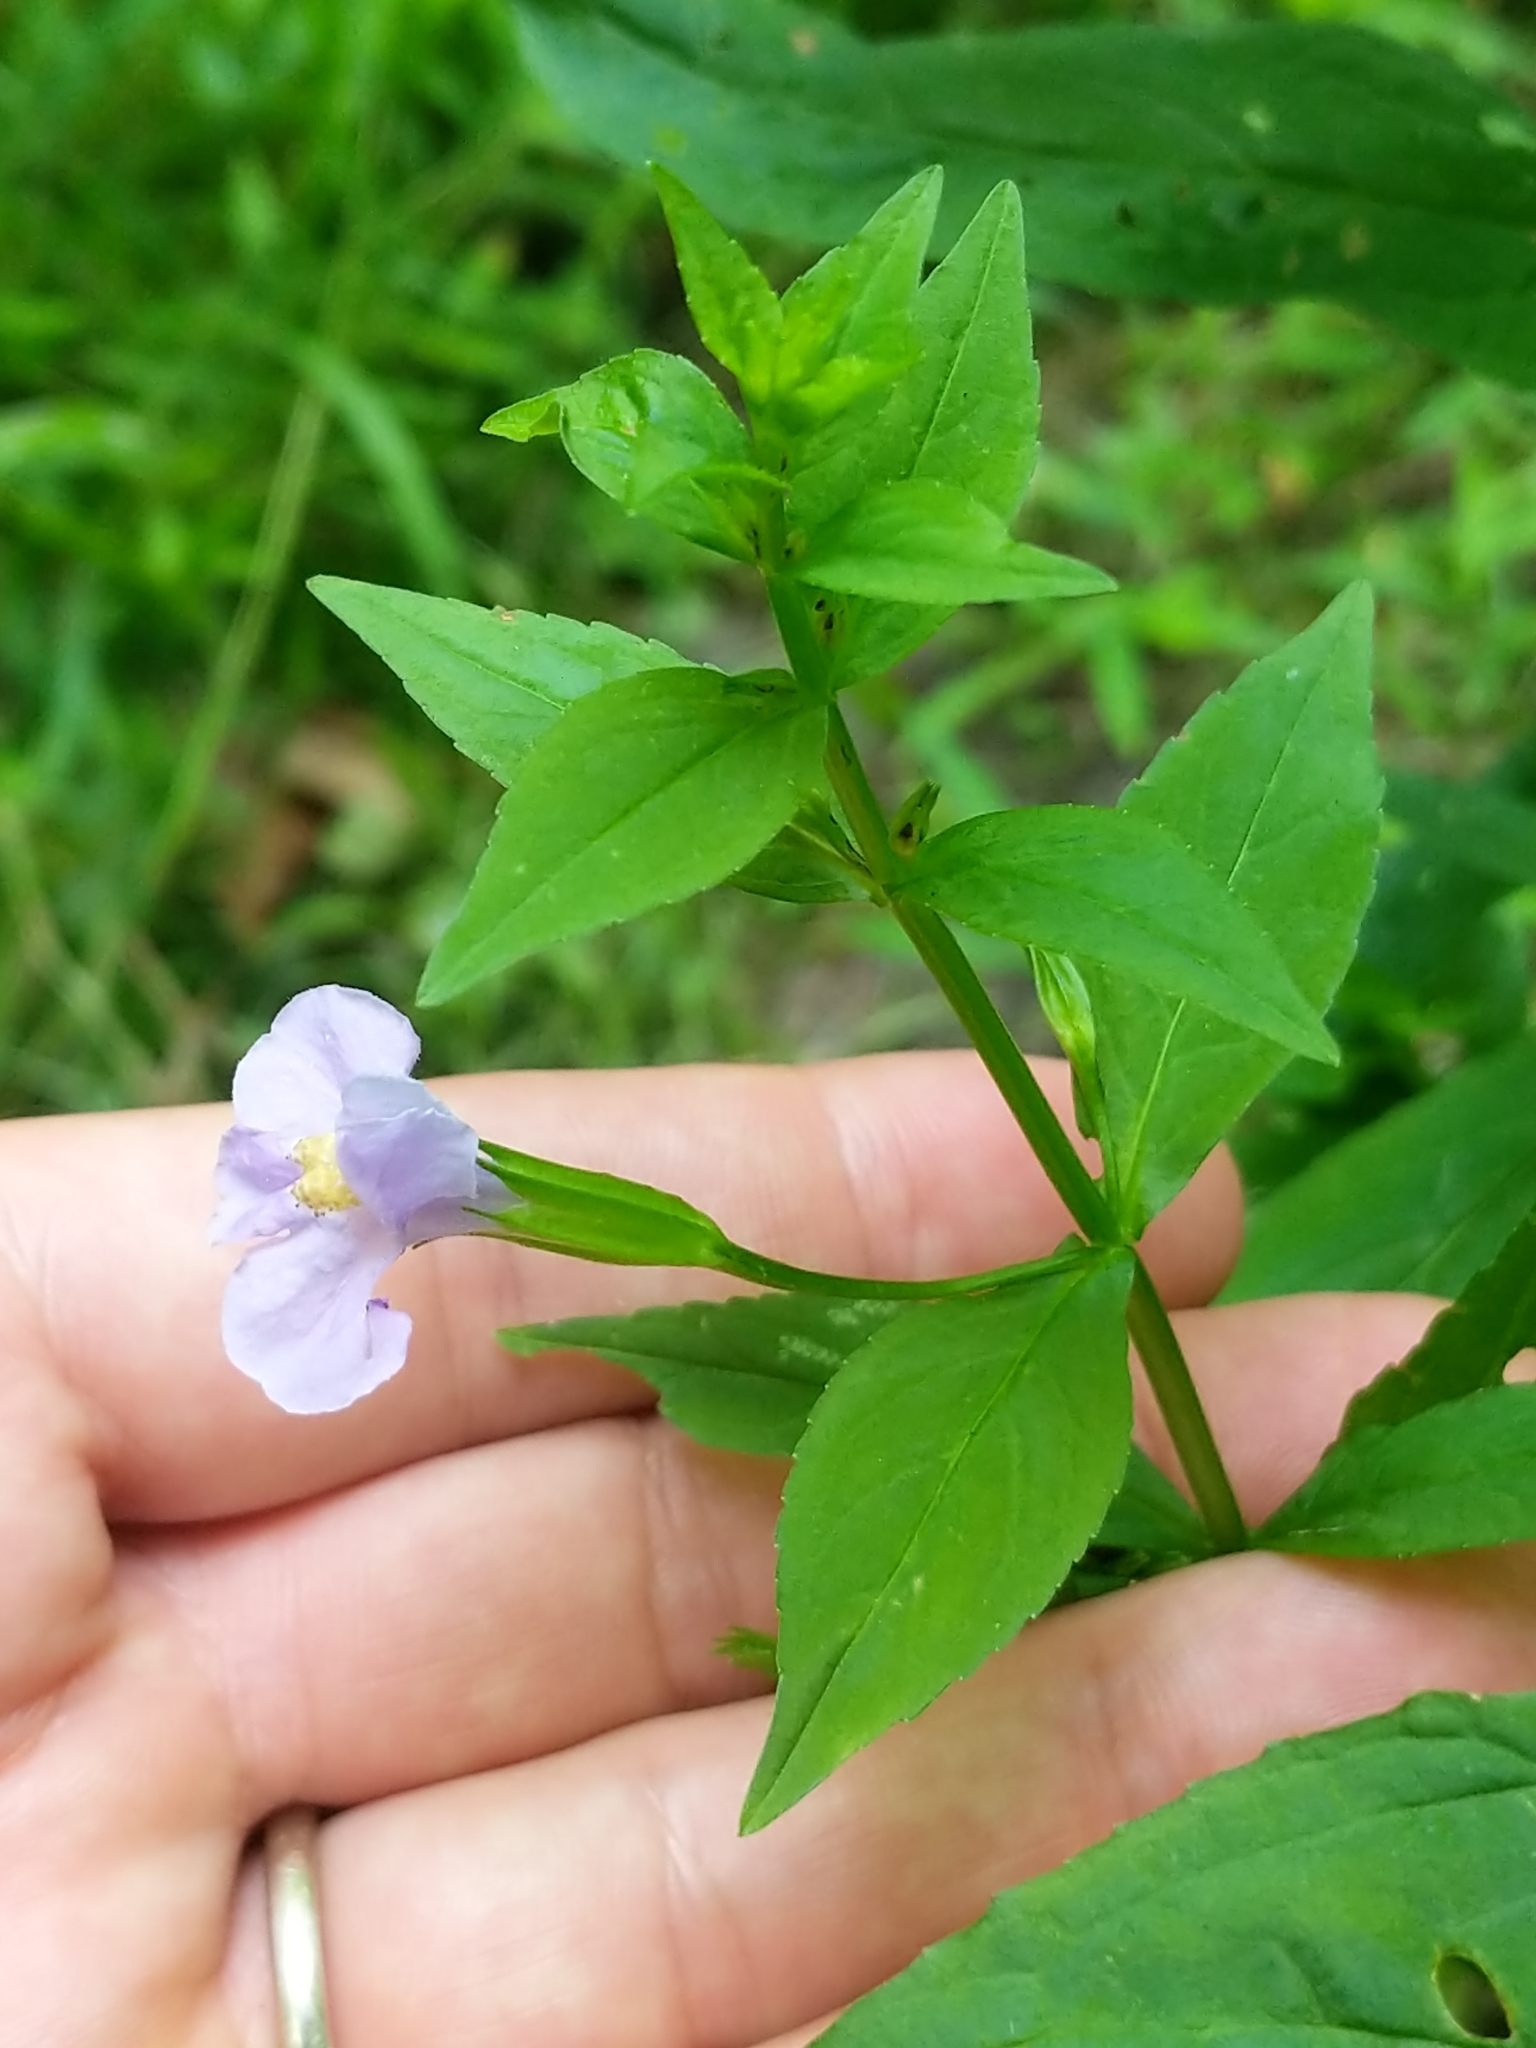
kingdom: Plantae
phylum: Tracheophyta
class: Magnoliopsida
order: Lamiales
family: Phrymaceae
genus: Mimulus
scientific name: Mimulus ringens
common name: Allegheny monkeyflower
